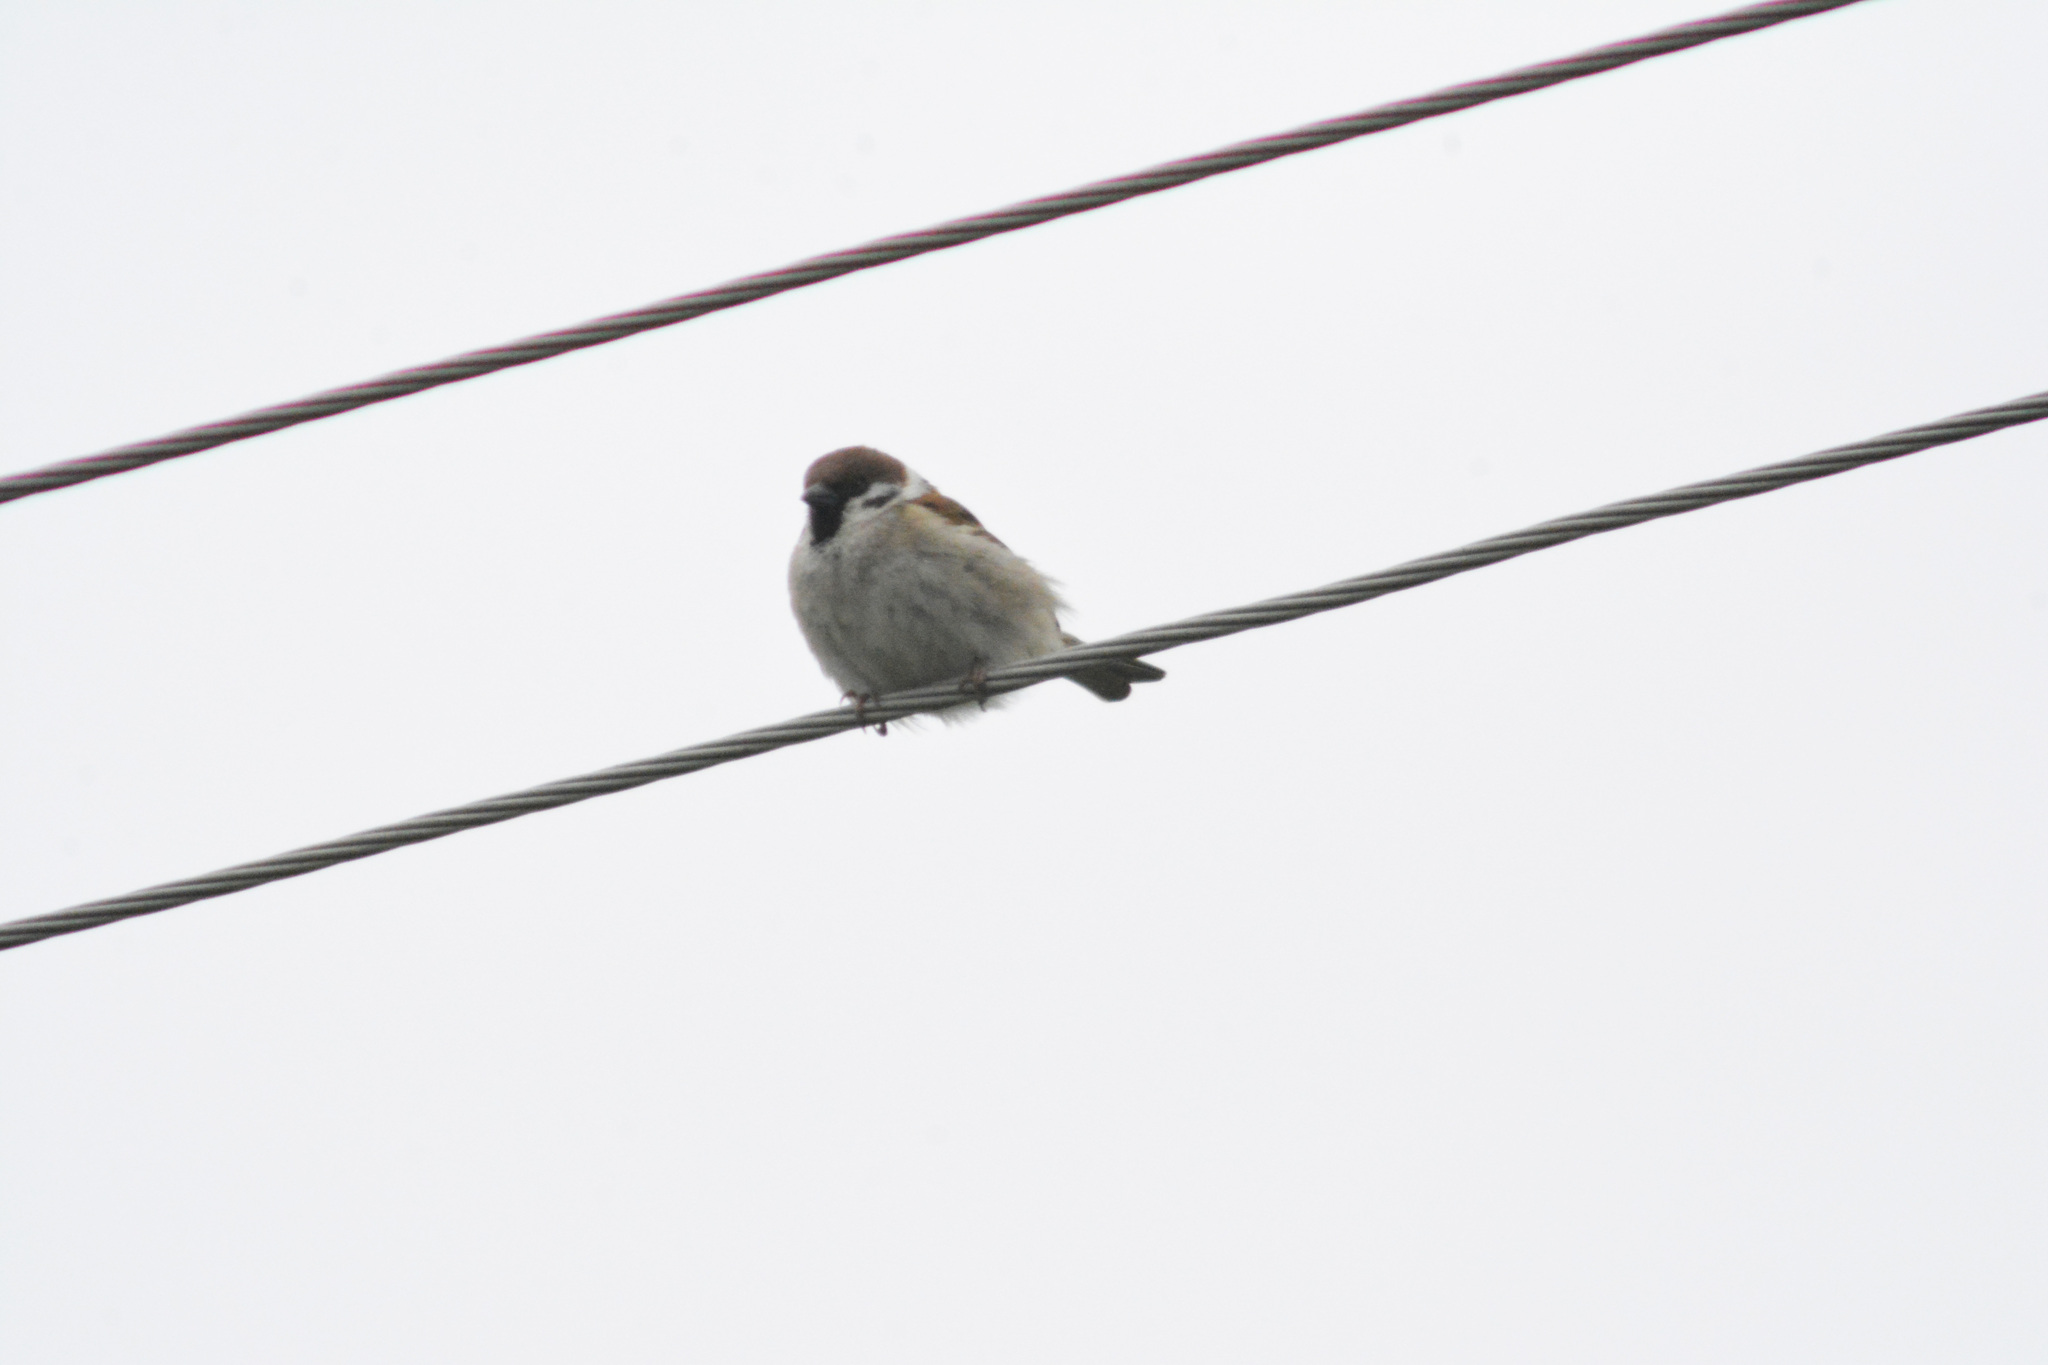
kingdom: Animalia
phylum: Chordata
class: Aves
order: Passeriformes
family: Passeridae
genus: Passer
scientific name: Passer montanus
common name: Eurasian tree sparrow
